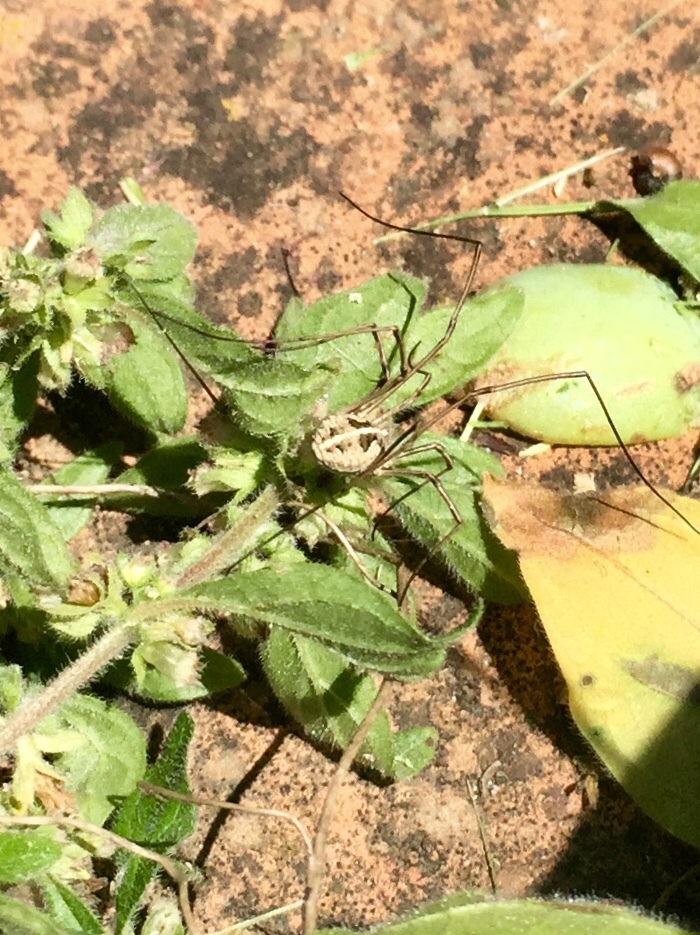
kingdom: Animalia
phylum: Arthropoda
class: Arachnida
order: Opiliones
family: Phalangiidae
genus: Metaphalangium
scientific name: Metaphalangium cirtanum
